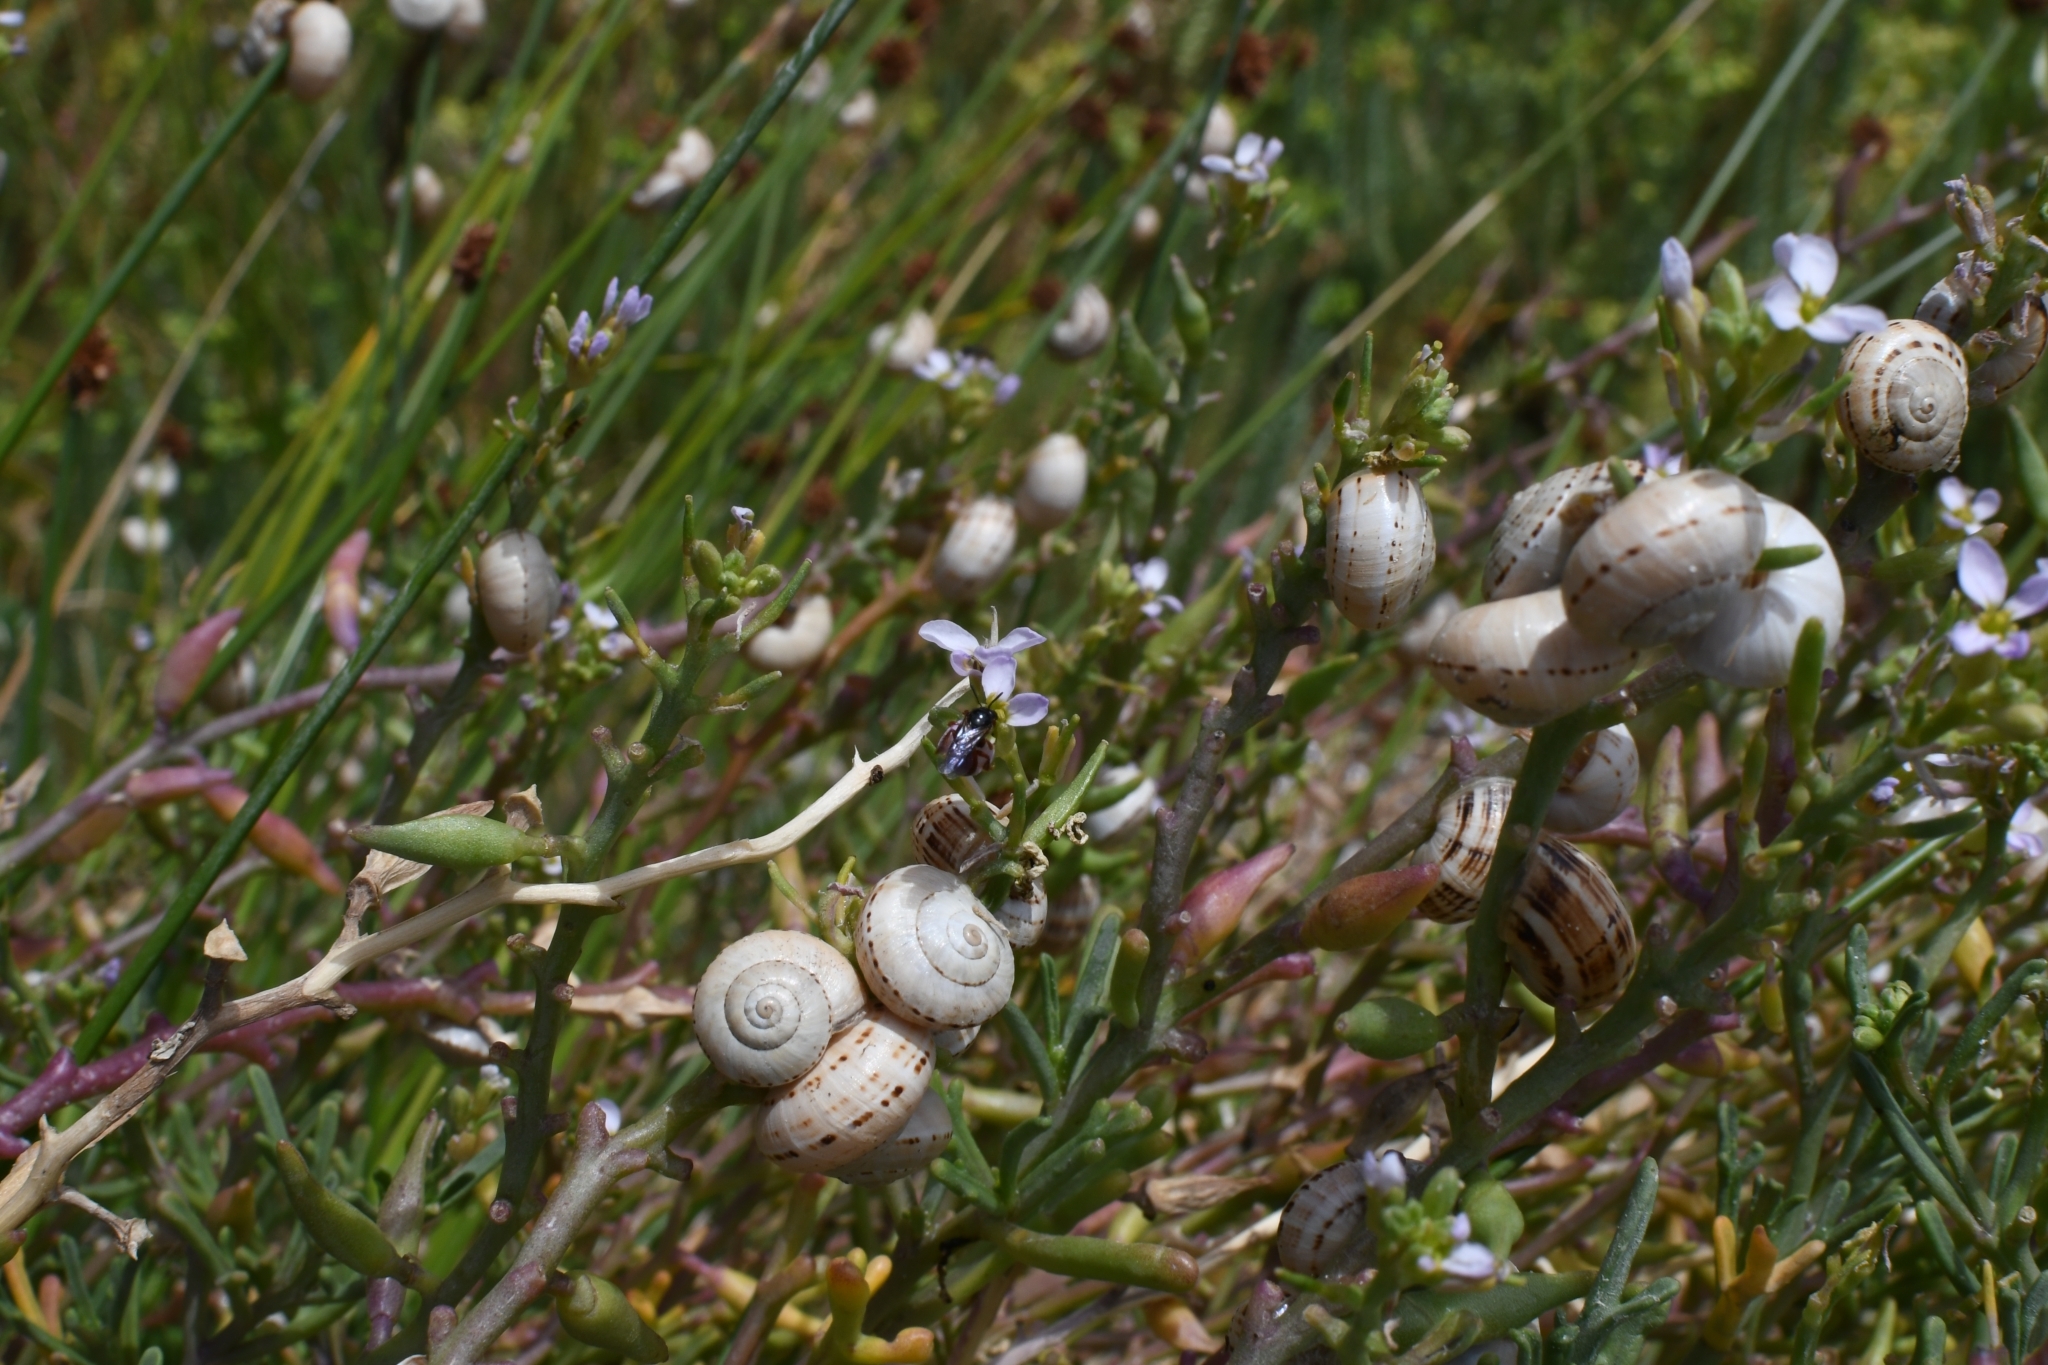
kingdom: Animalia
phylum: Mollusca
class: Gastropoda
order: Stylommatophora
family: Helicidae
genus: Theba
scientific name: Theba pisana
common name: White snail
